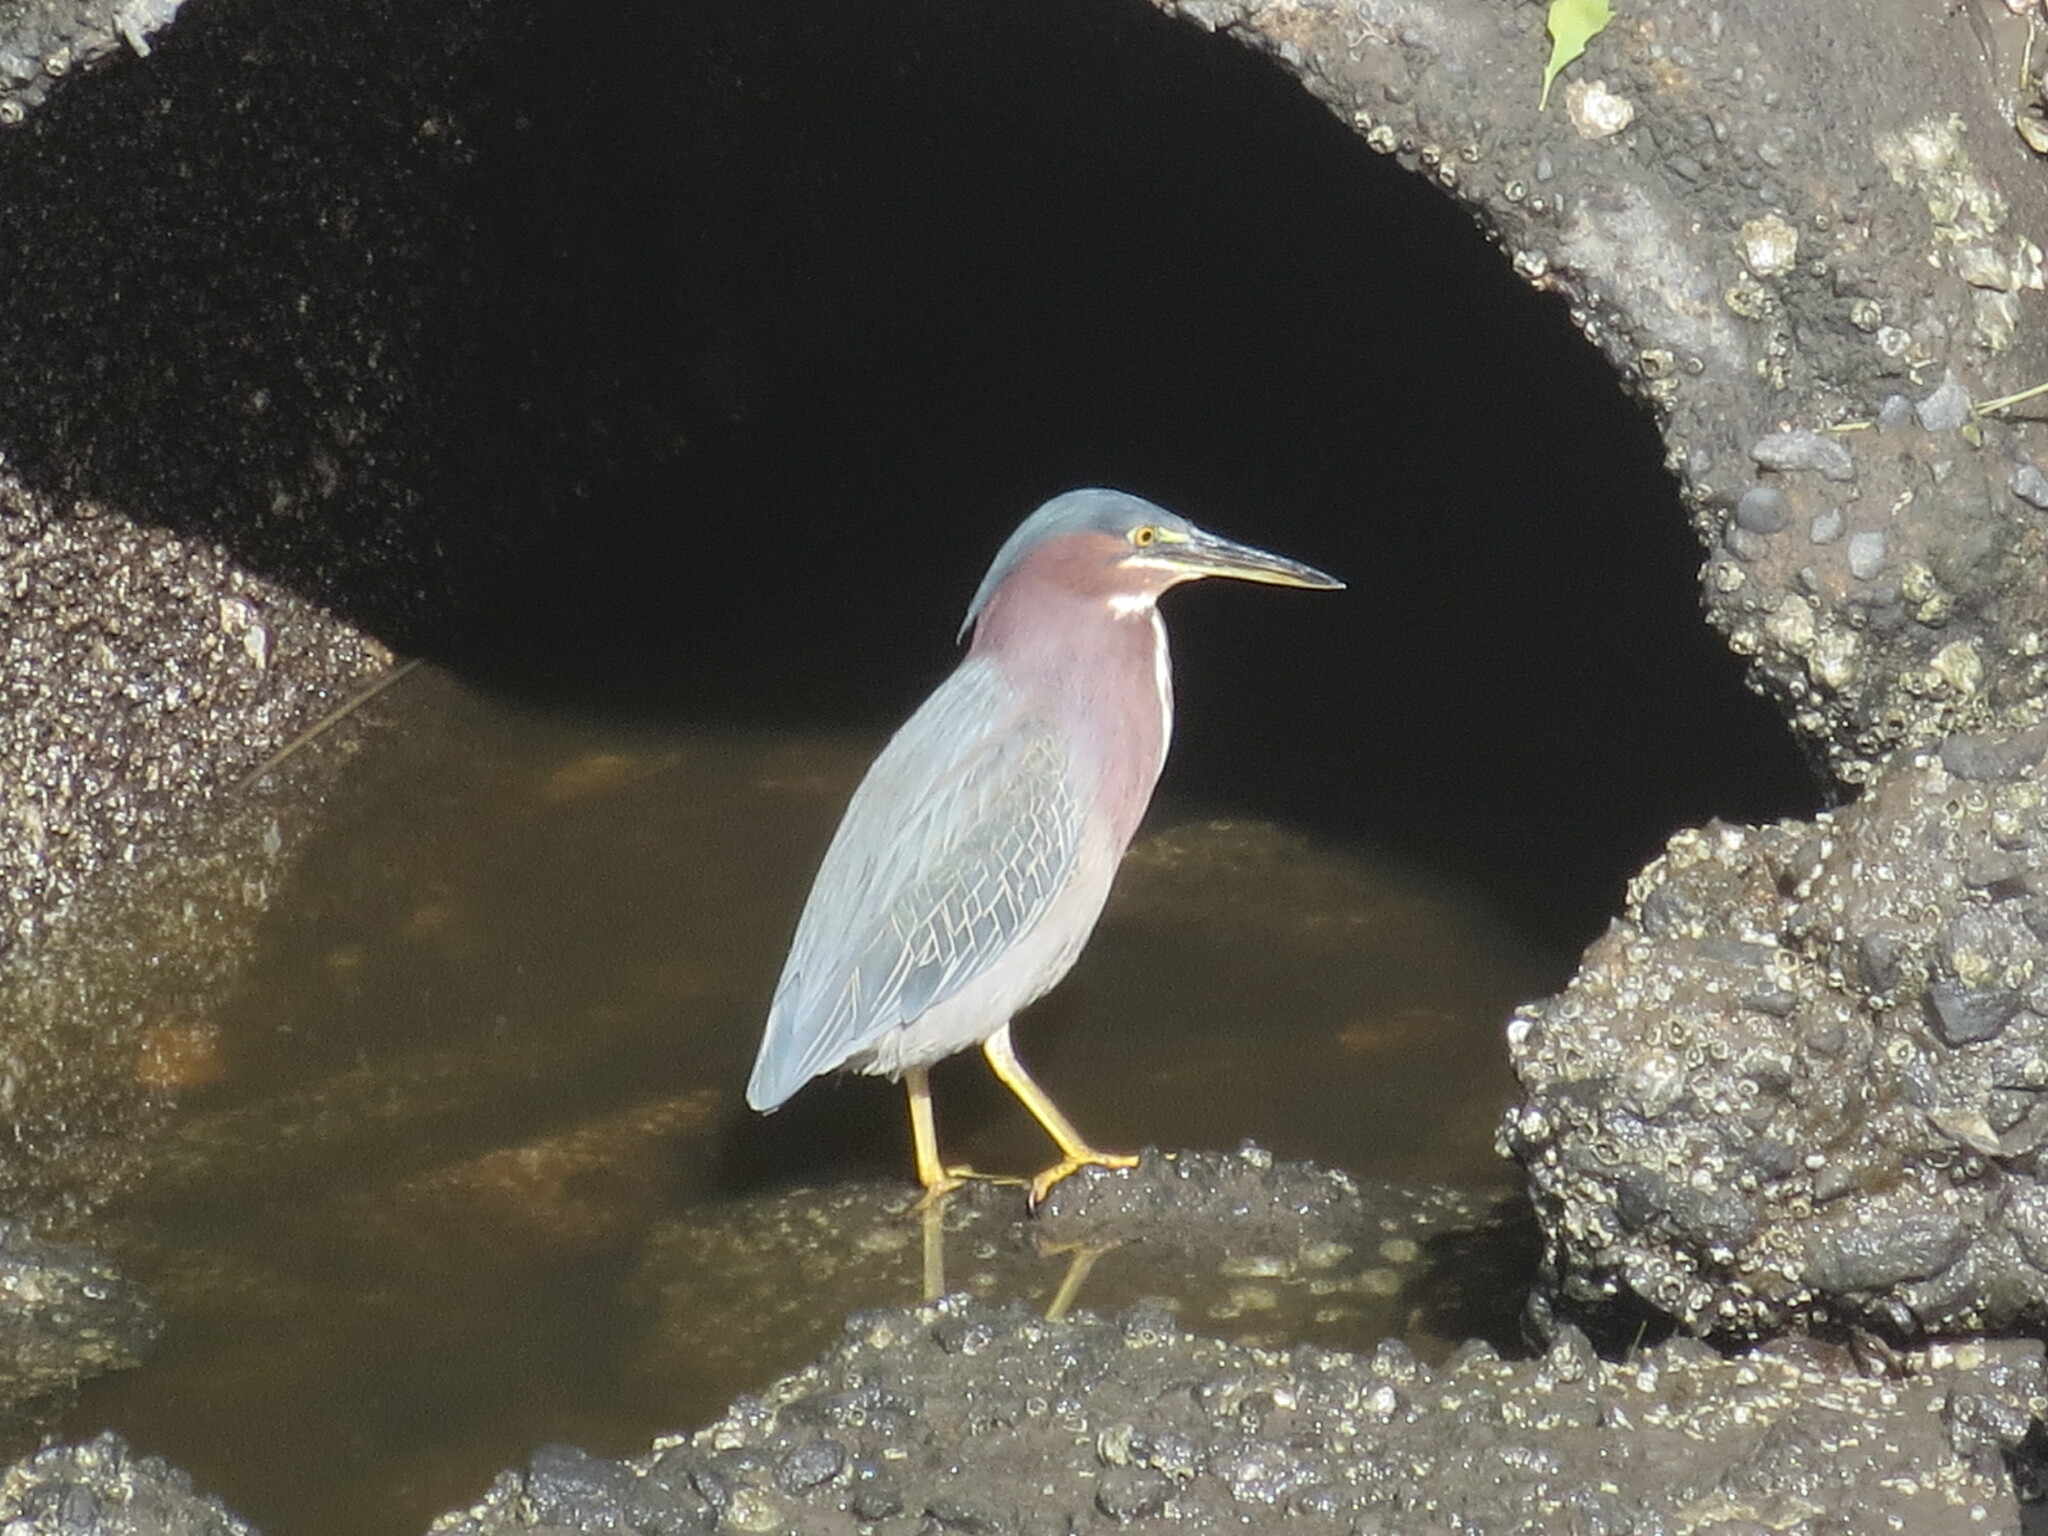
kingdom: Animalia
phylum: Chordata
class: Aves
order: Pelecaniformes
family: Ardeidae
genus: Butorides
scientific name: Butorides virescens
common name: Green heron
